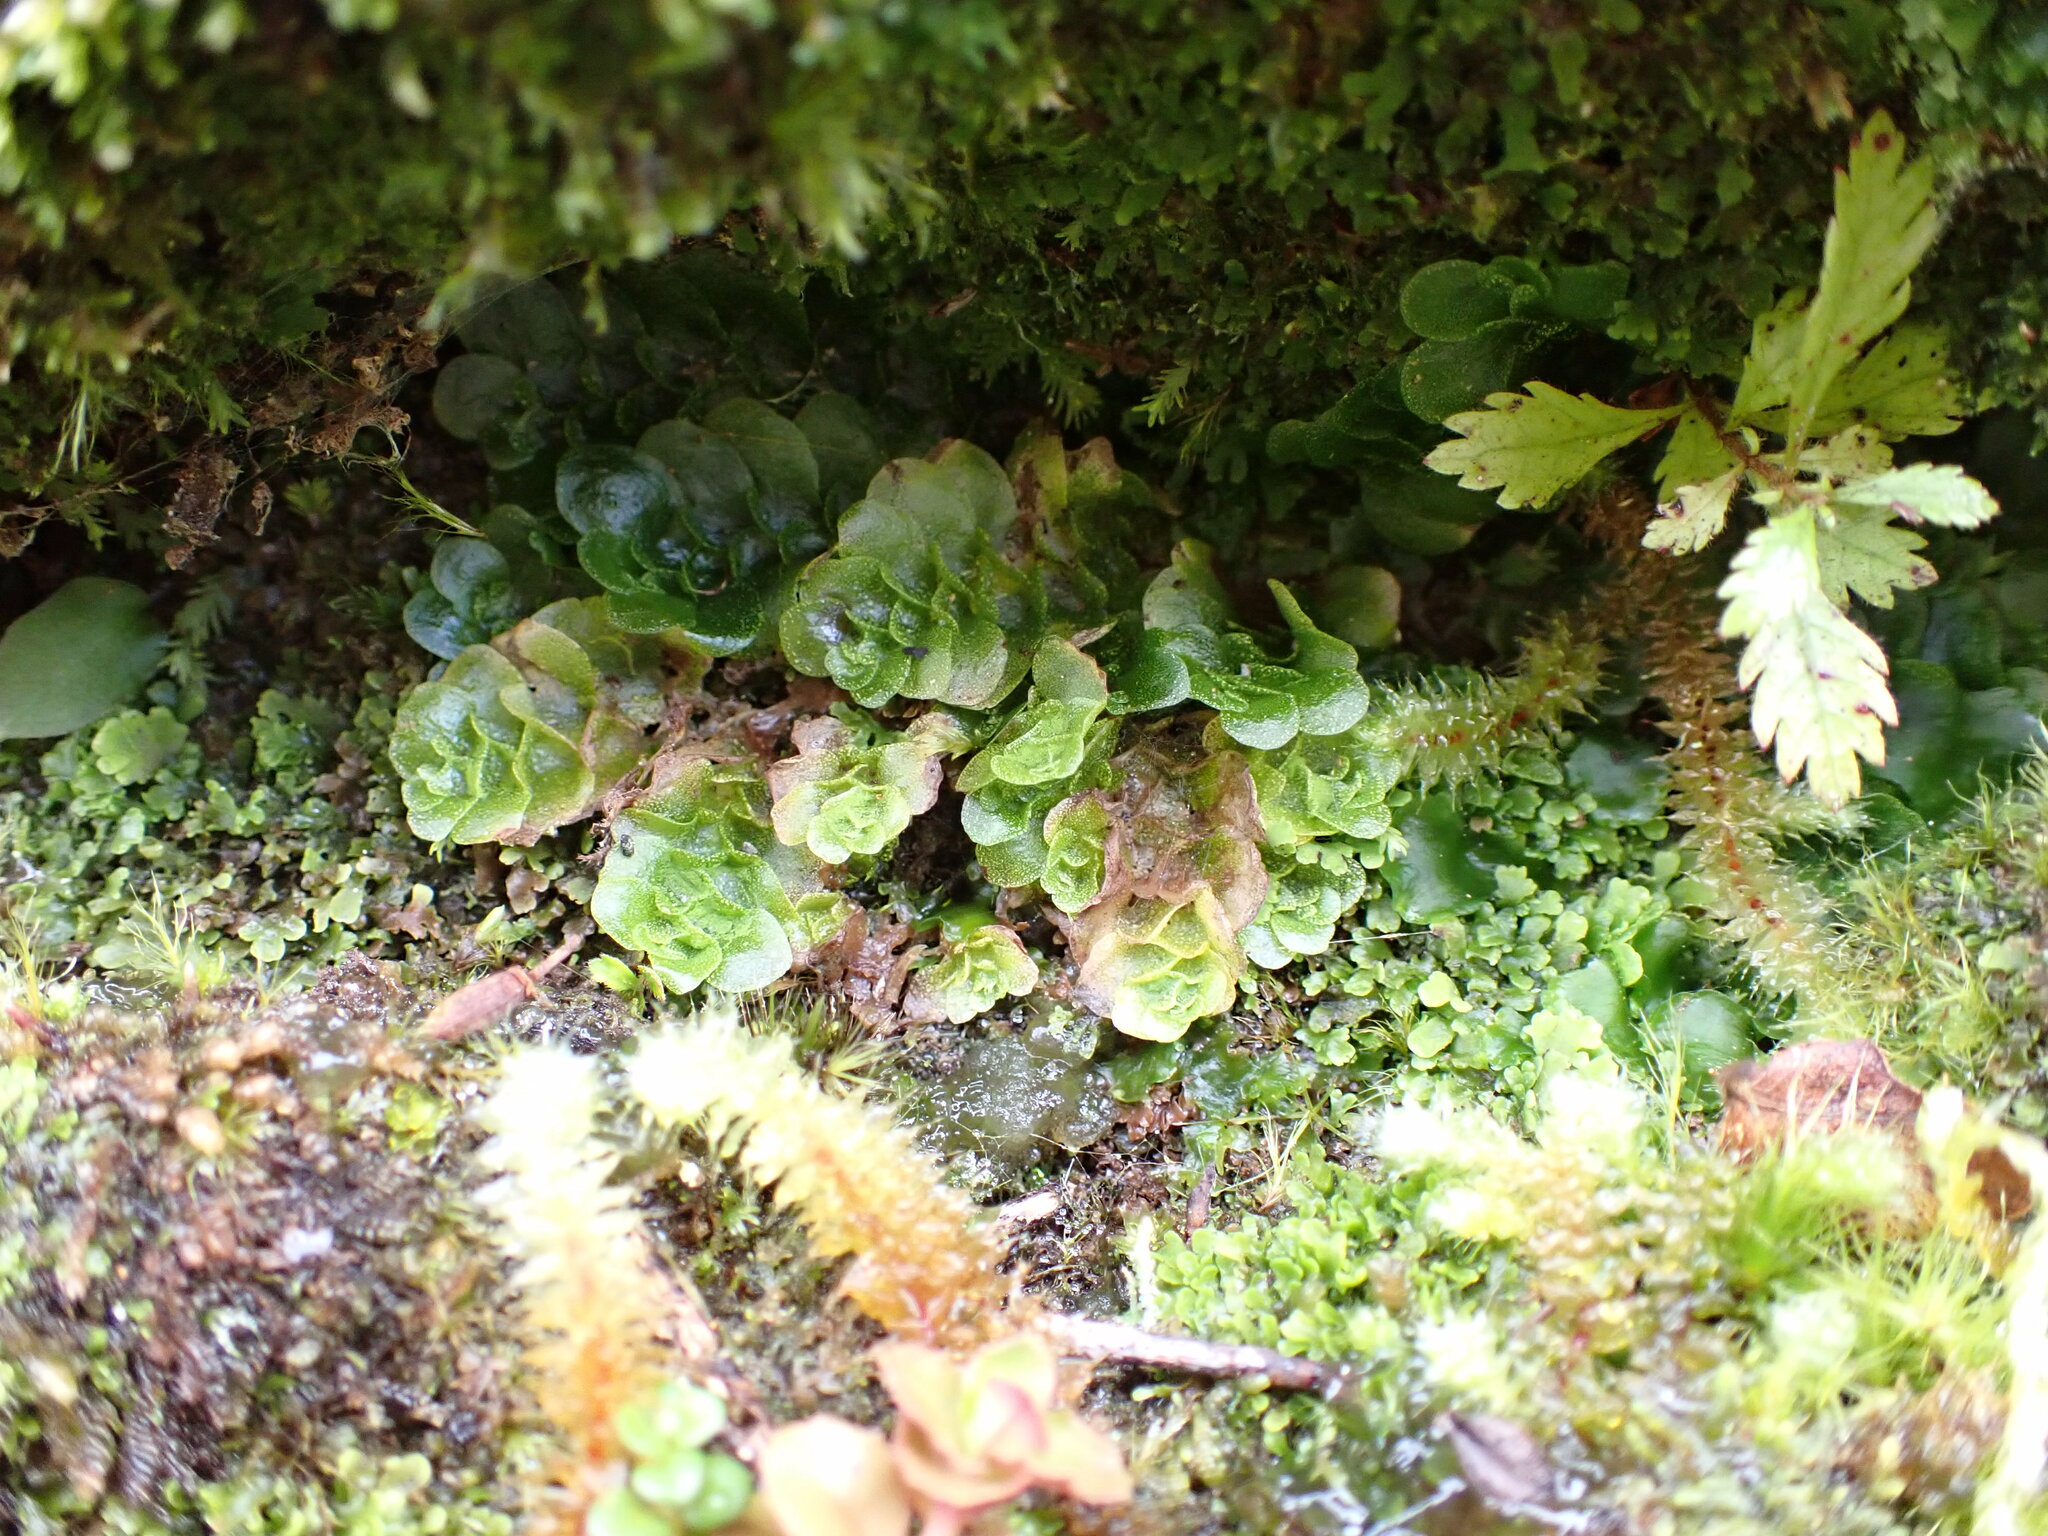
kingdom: Plantae
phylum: Marchantiophyta
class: Haplomitriopsida
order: Treubiales
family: Treubiaceae
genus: Treubia
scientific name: Treubia lacunosa
